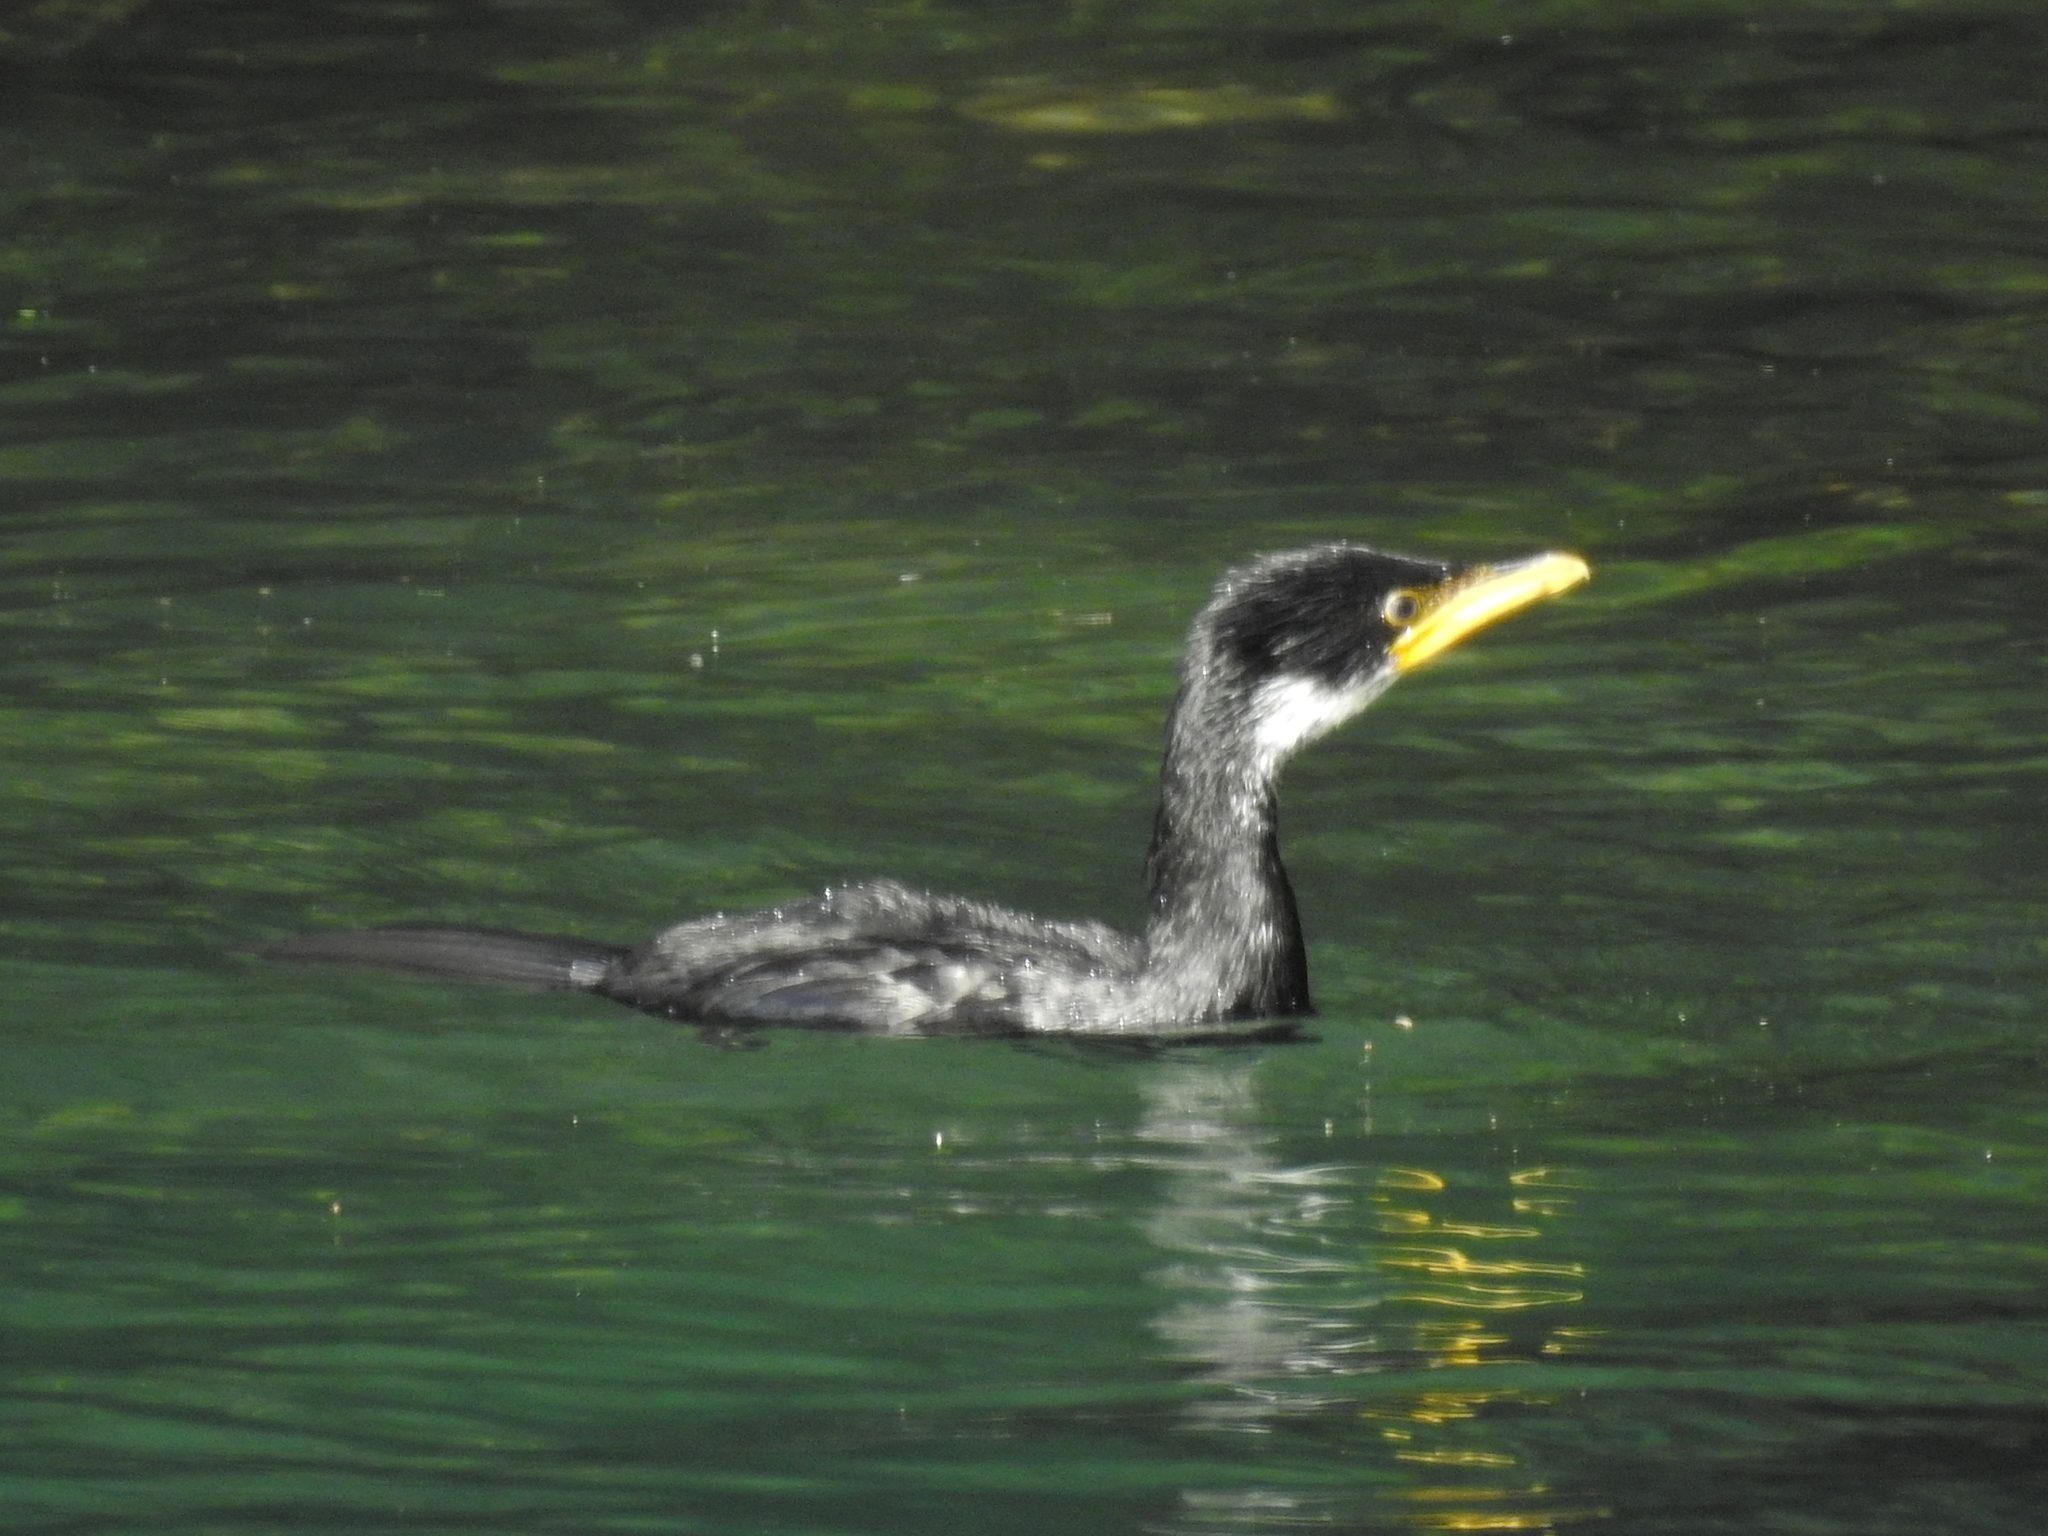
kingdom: Animalia
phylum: Chordata
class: Aves
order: Suliformes
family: Phalacrocoracidae
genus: Microcarbo
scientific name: Microcarbo melanoleucos
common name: Little pied cormorant
